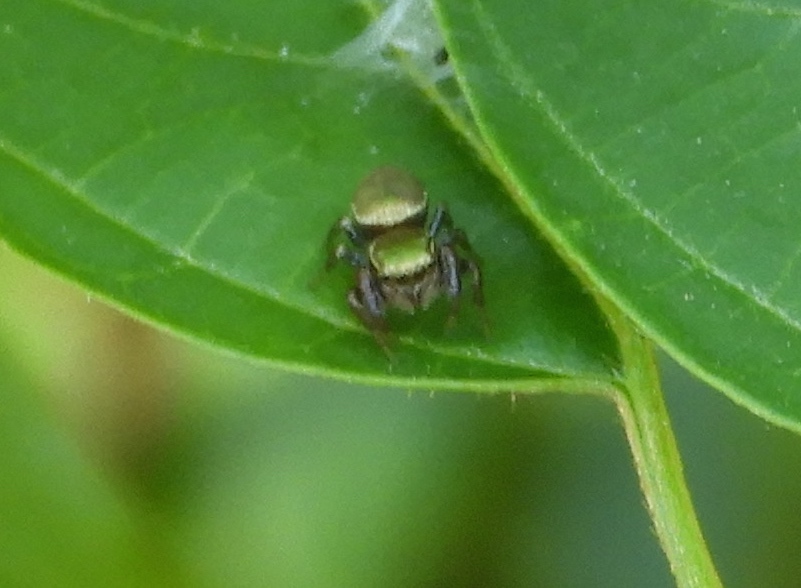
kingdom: Animalia
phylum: Arthropoda
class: Arachnida
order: Araneae
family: Salticidae
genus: Messua
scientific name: Messua limbata
